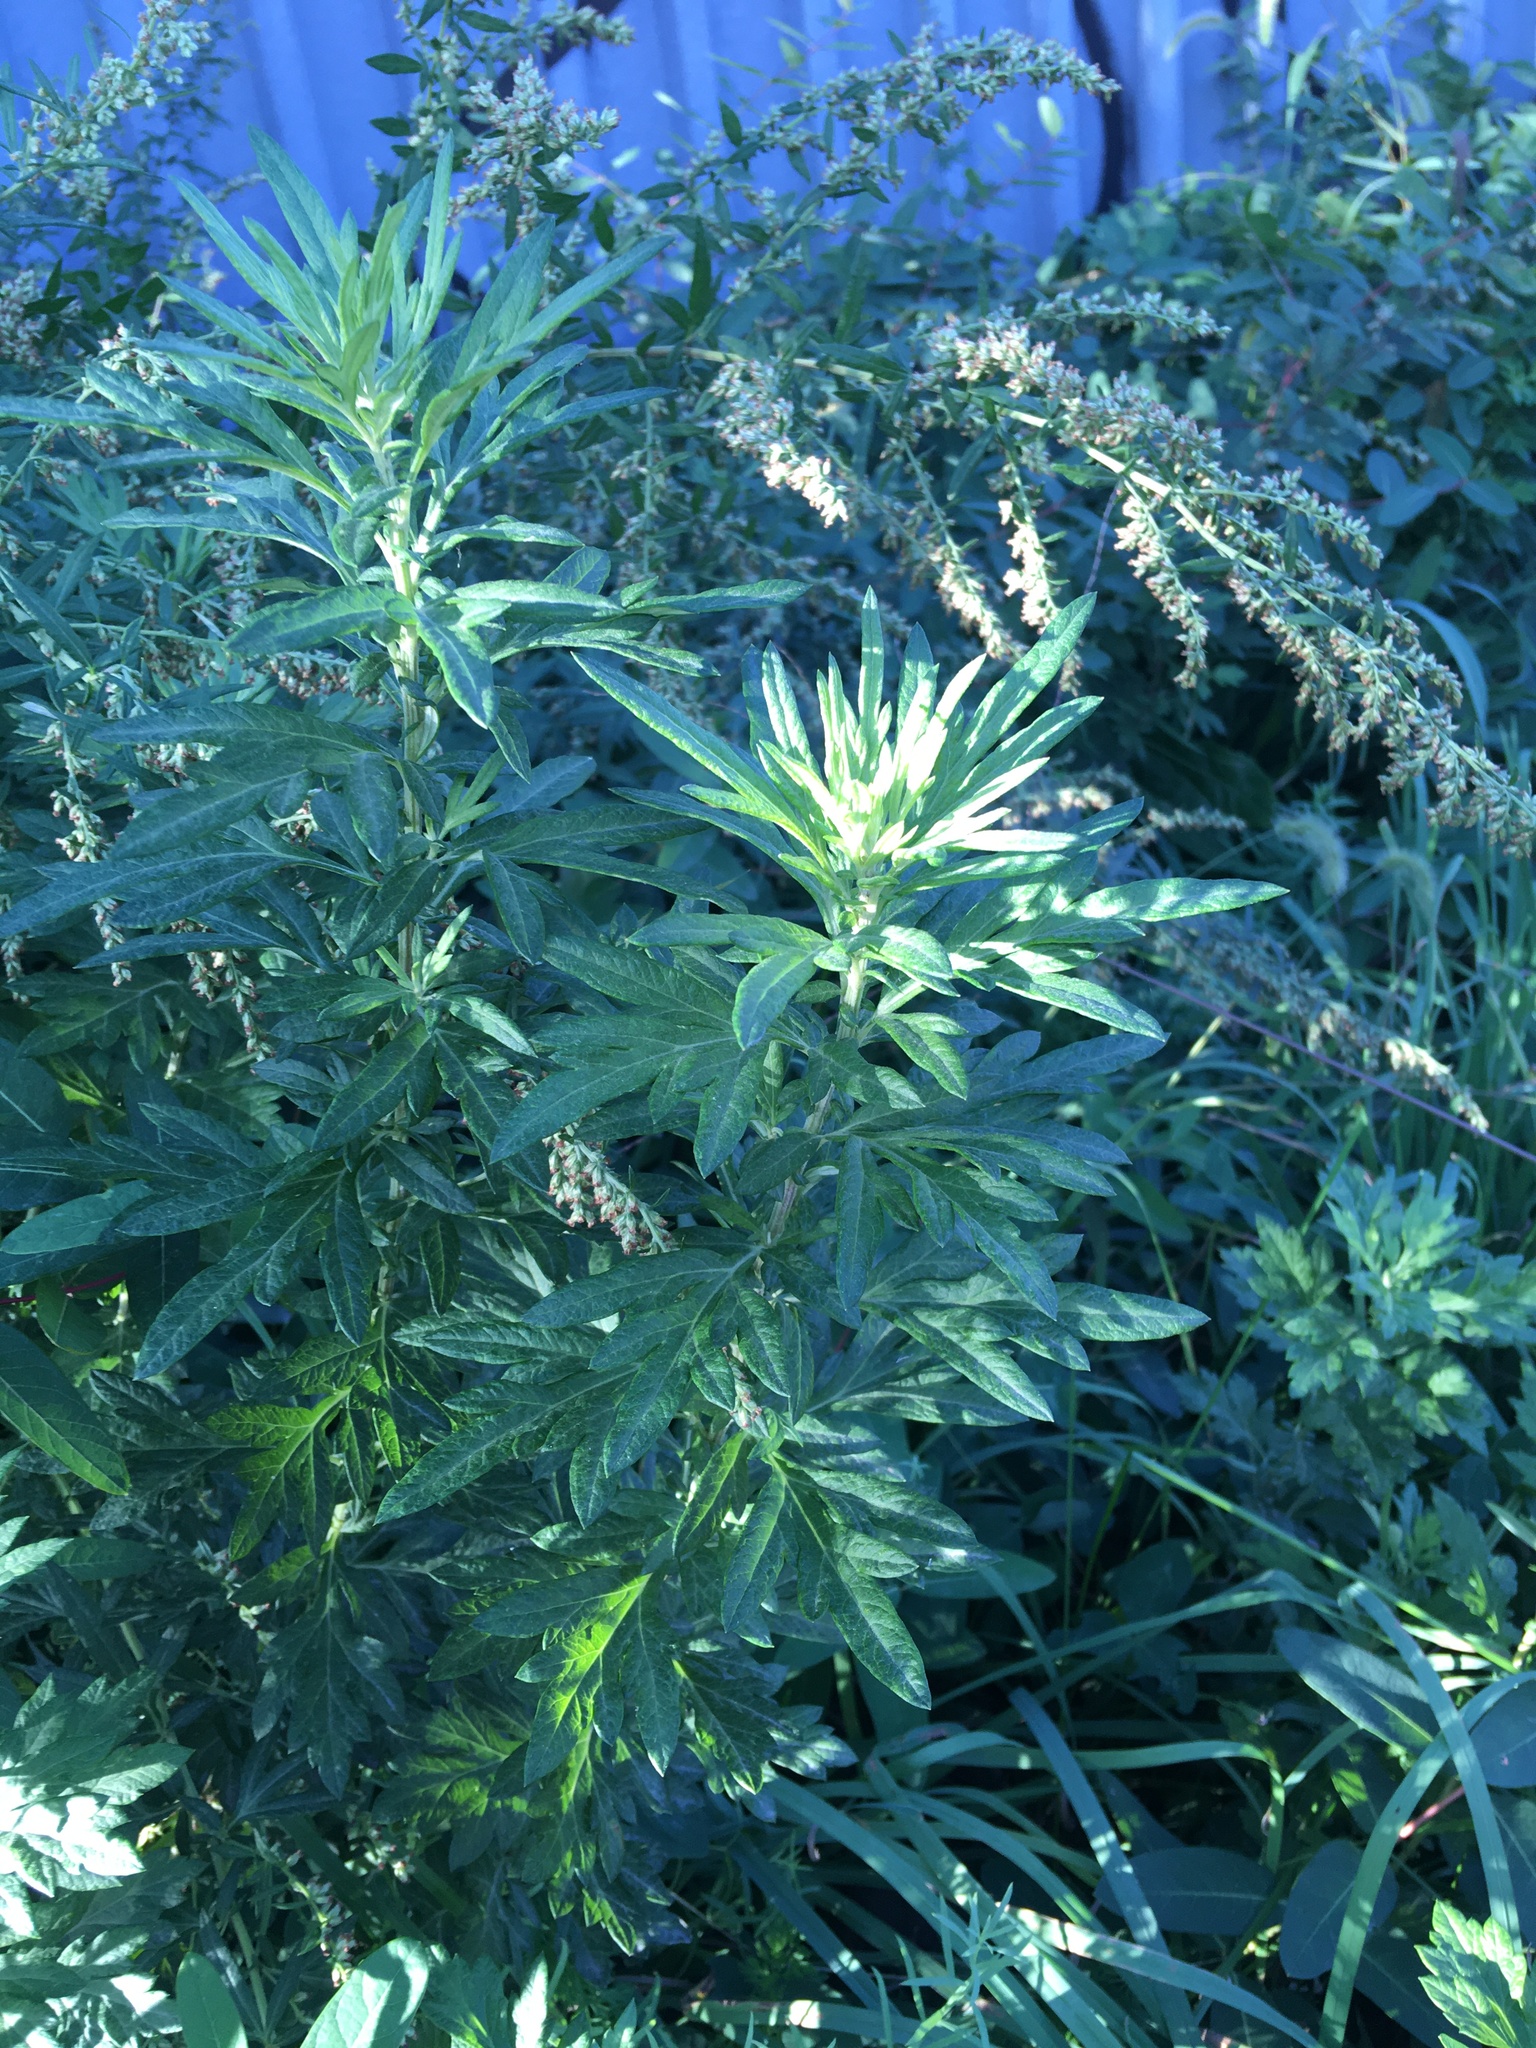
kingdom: Plantae
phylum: Tracheophyta
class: Magnoliopsida
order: Asterales
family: Asteraceae
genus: Artemisia
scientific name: Artemisia vulgaris
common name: Mugwort
